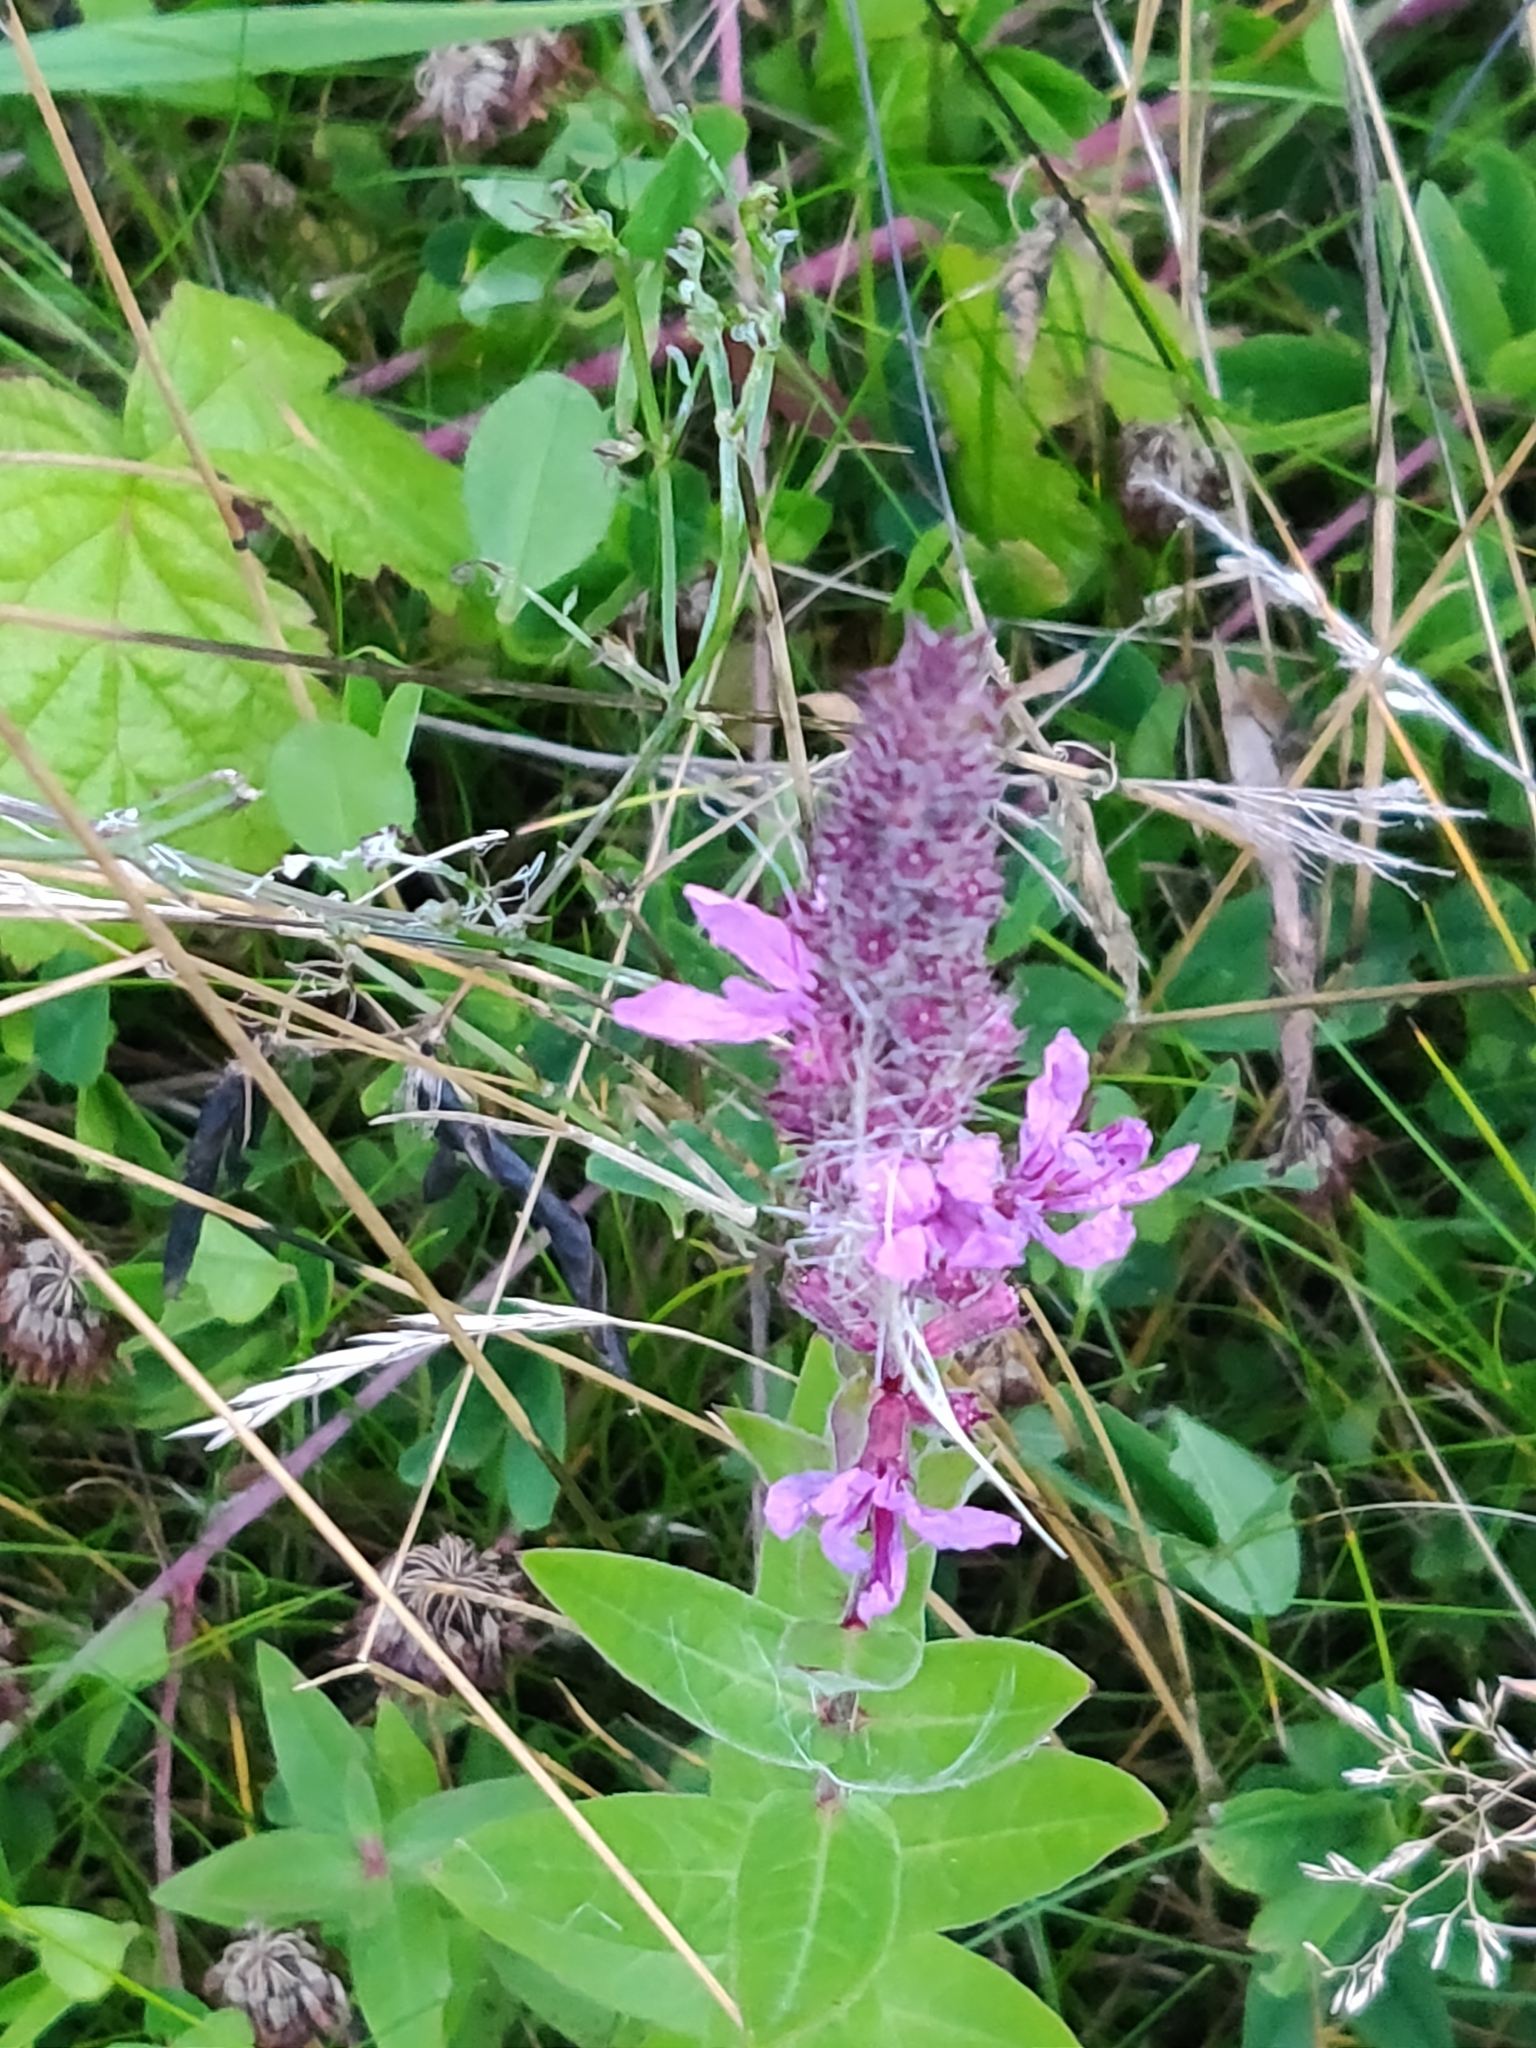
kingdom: Plantae
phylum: Tracheophyta
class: Magnoliopsida
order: Myrtales
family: Lythraceae
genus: Lythrum
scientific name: Lythrum salicaria
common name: Purple loosestrife
